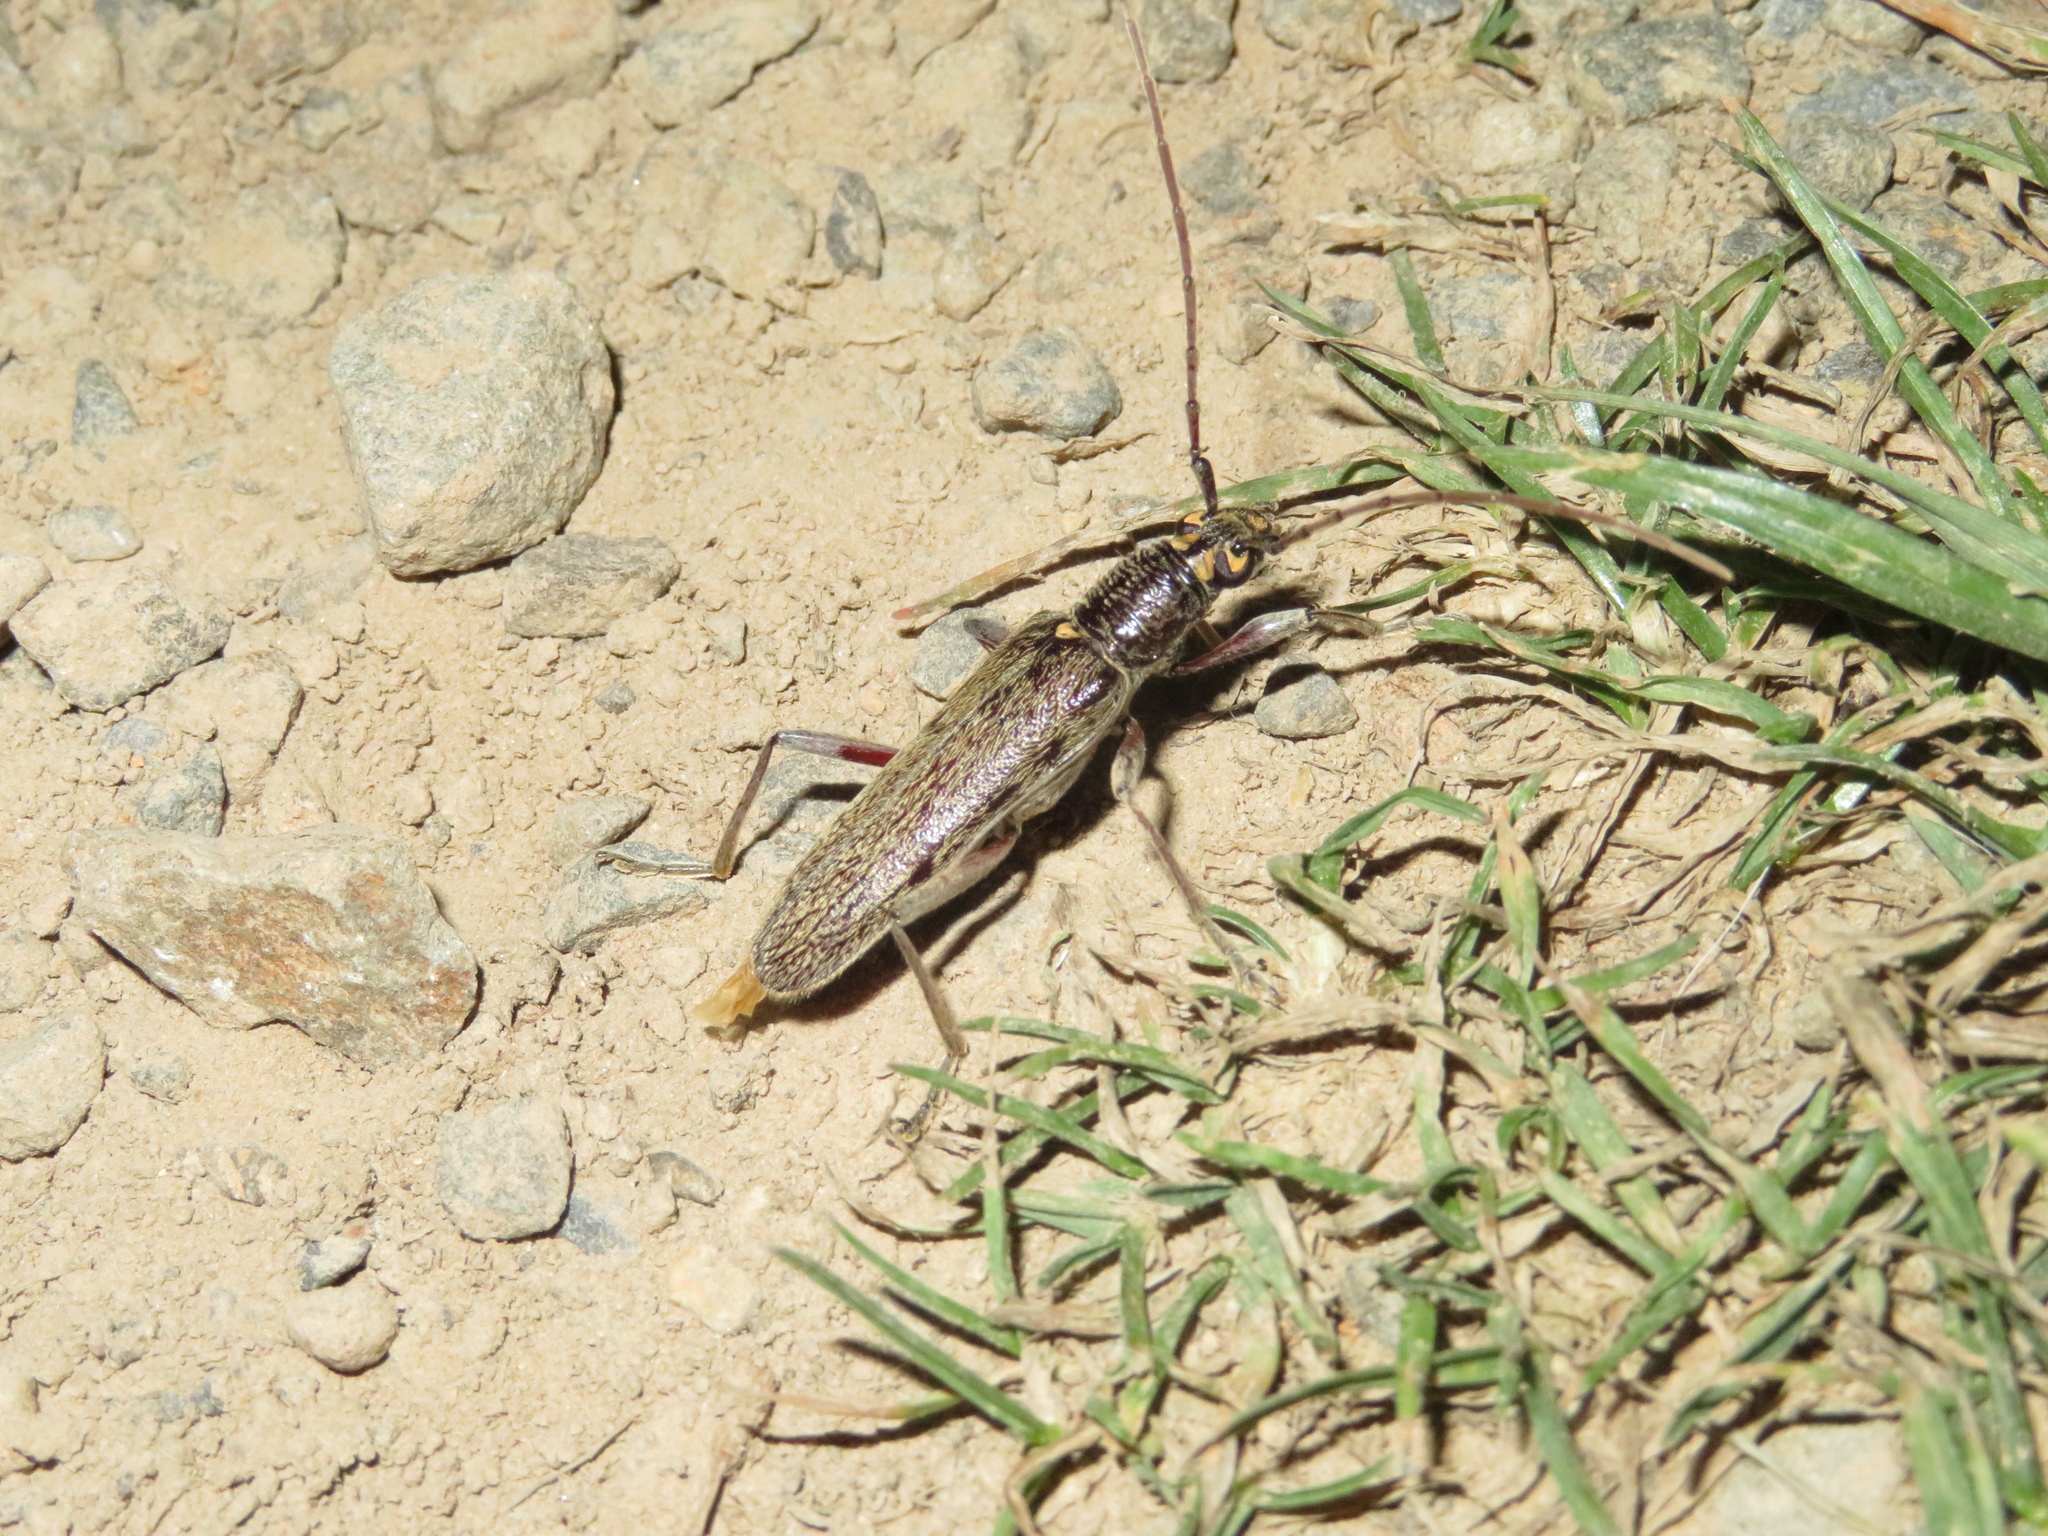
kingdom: Animalia
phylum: Arthropoda
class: Insecta
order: Coleoptera
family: Cerambycidae
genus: Oemona
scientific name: Oemona hirta
